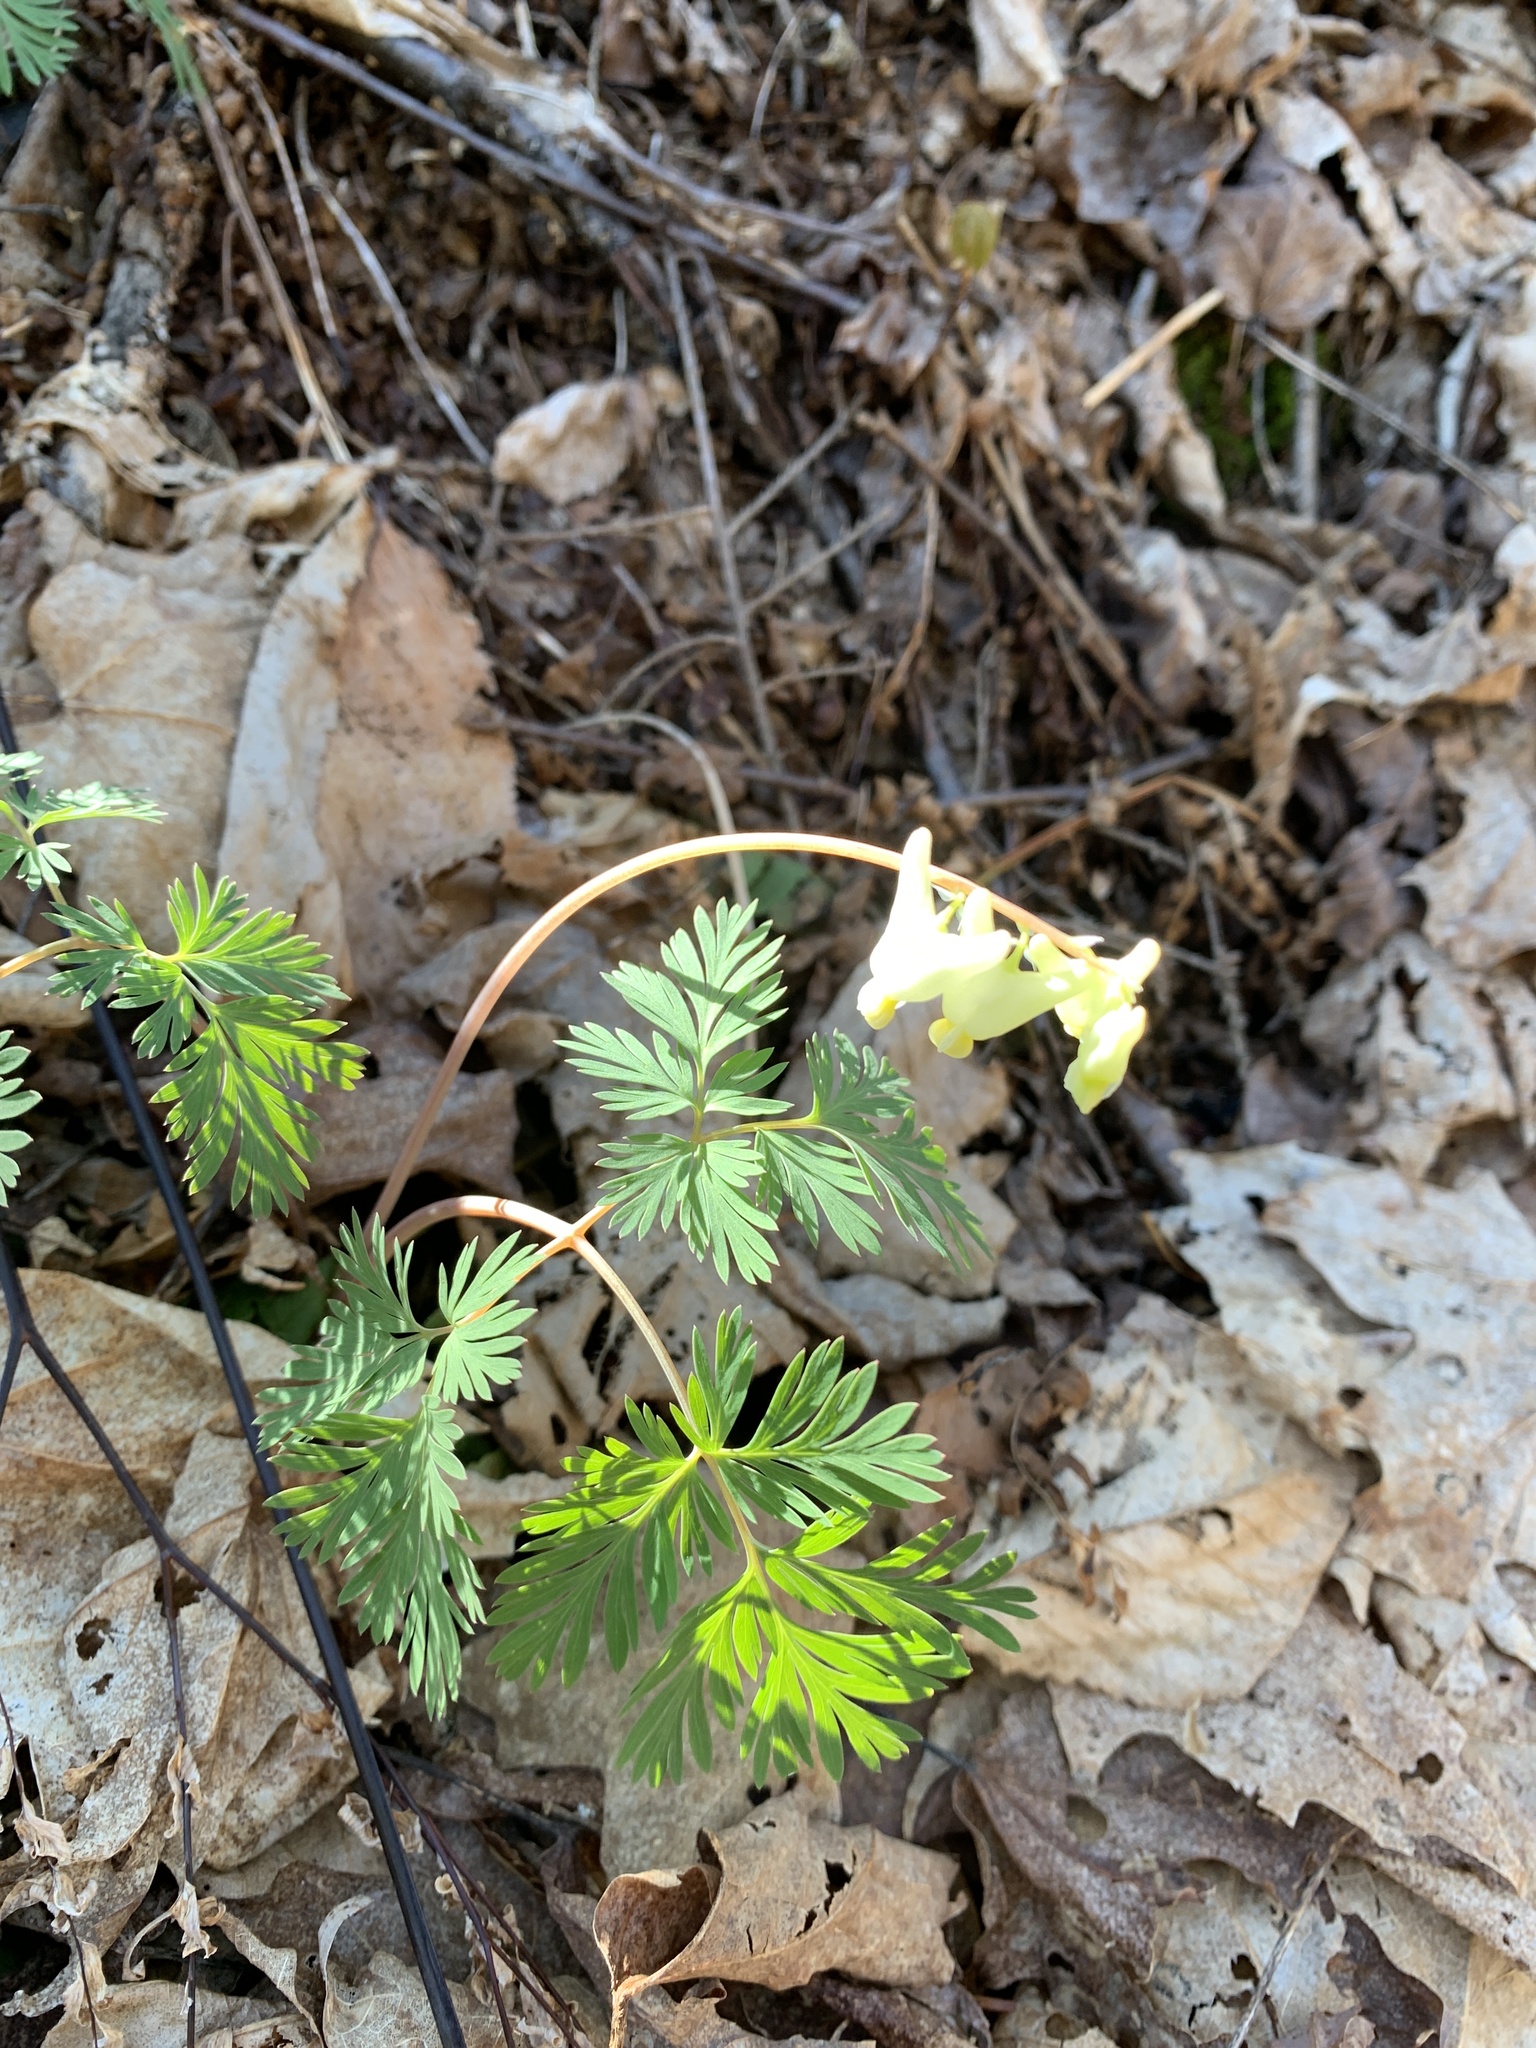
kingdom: Plantae
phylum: Tracheophyta
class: Magnoliopsida
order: Ranunculales
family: Papaveraceae
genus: Dicentra
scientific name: Dicentra cucullaria
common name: Dutchman's breeches
